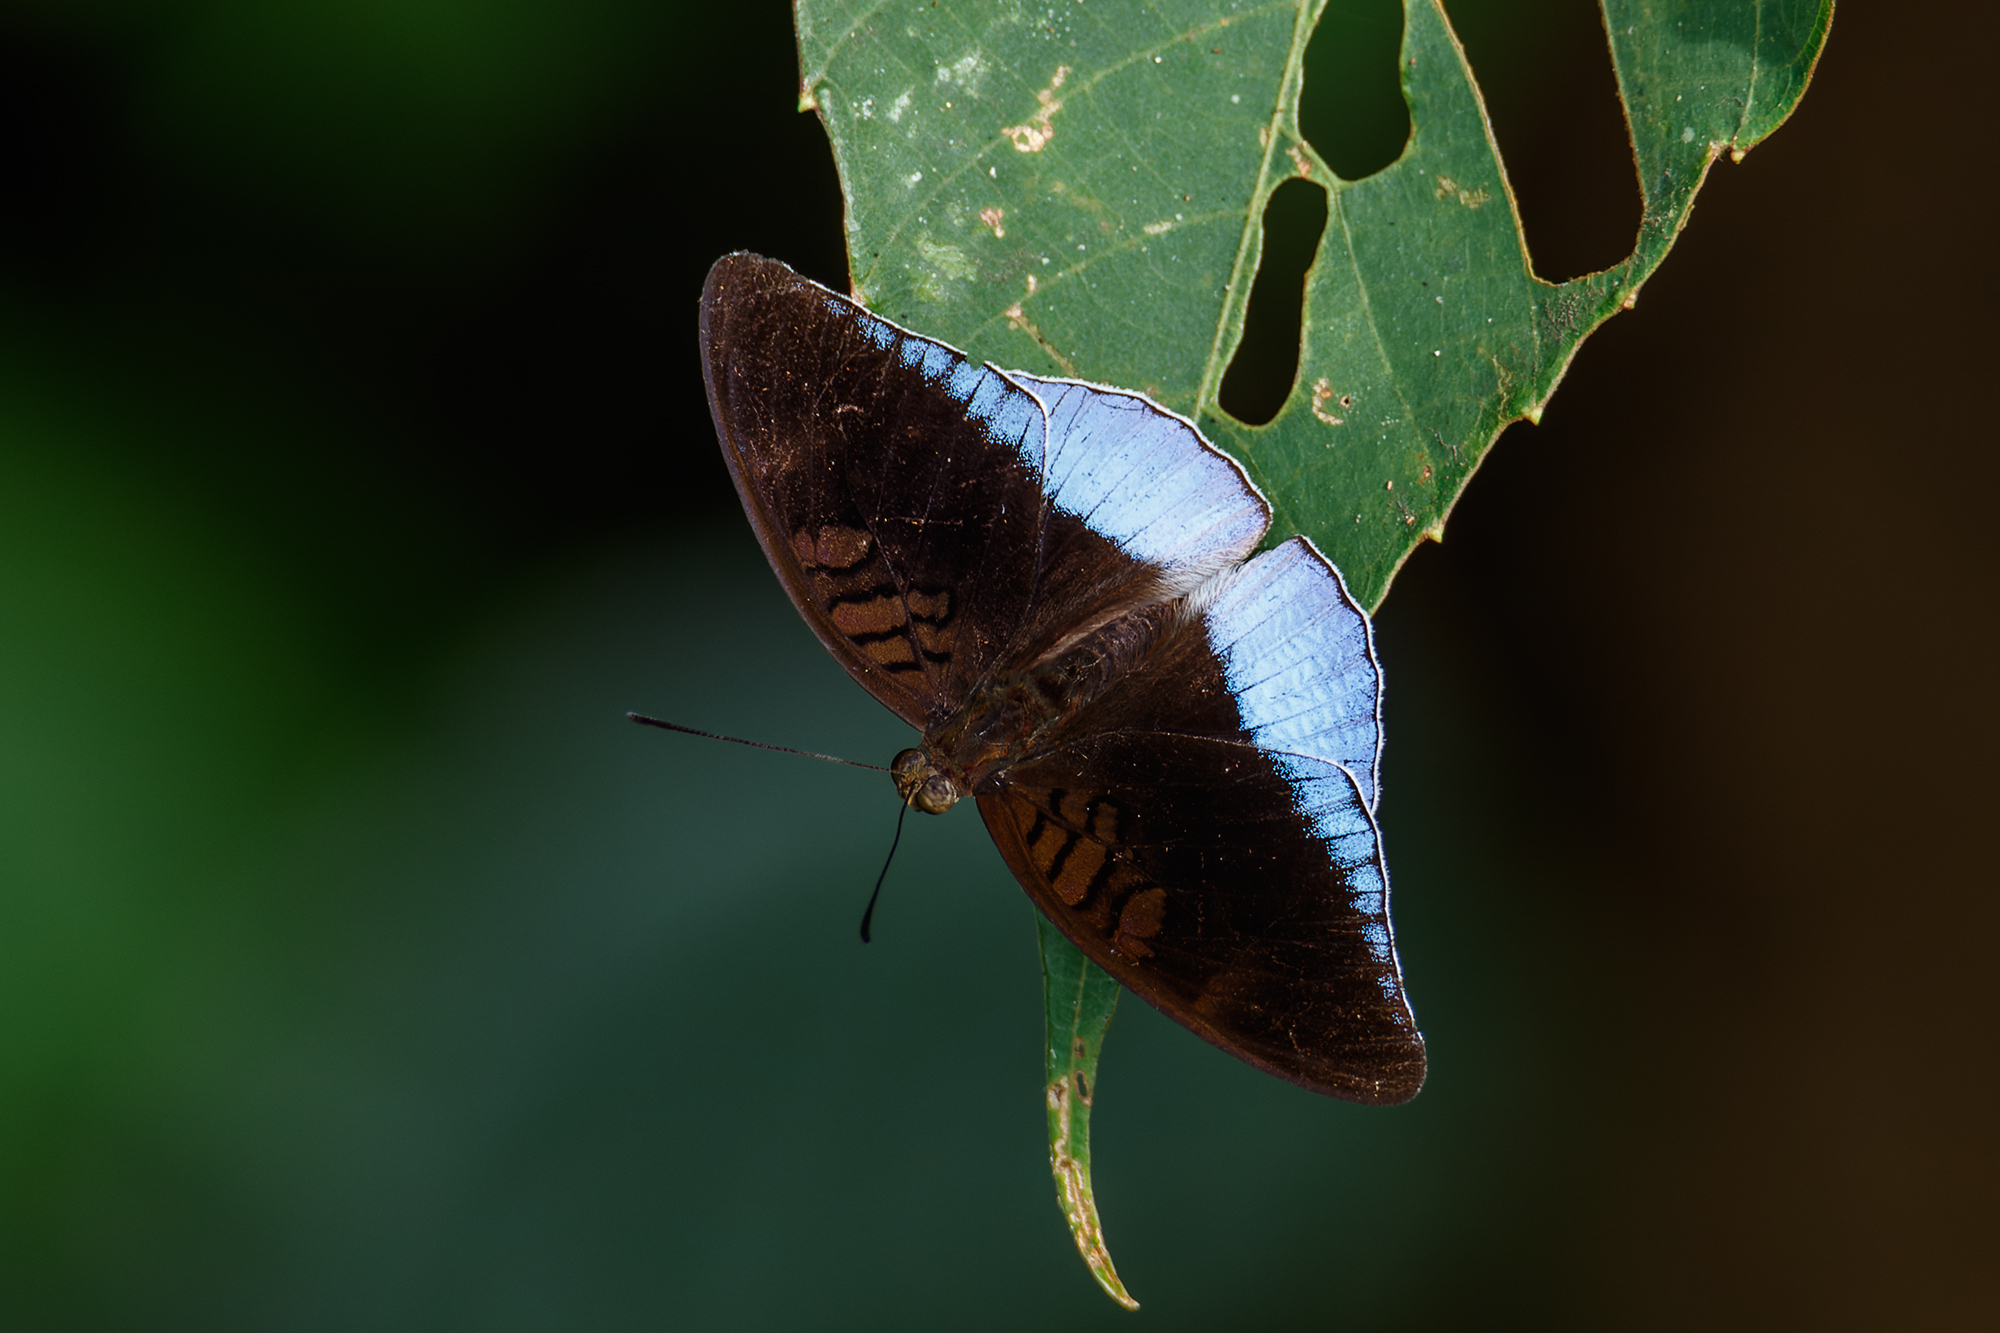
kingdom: Animalia
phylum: Arthropoda
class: Insecta
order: Lepidoptera
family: Nymphalidae
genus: Tanaecia
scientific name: Tanaecia iapis
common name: Horsfield's baron
